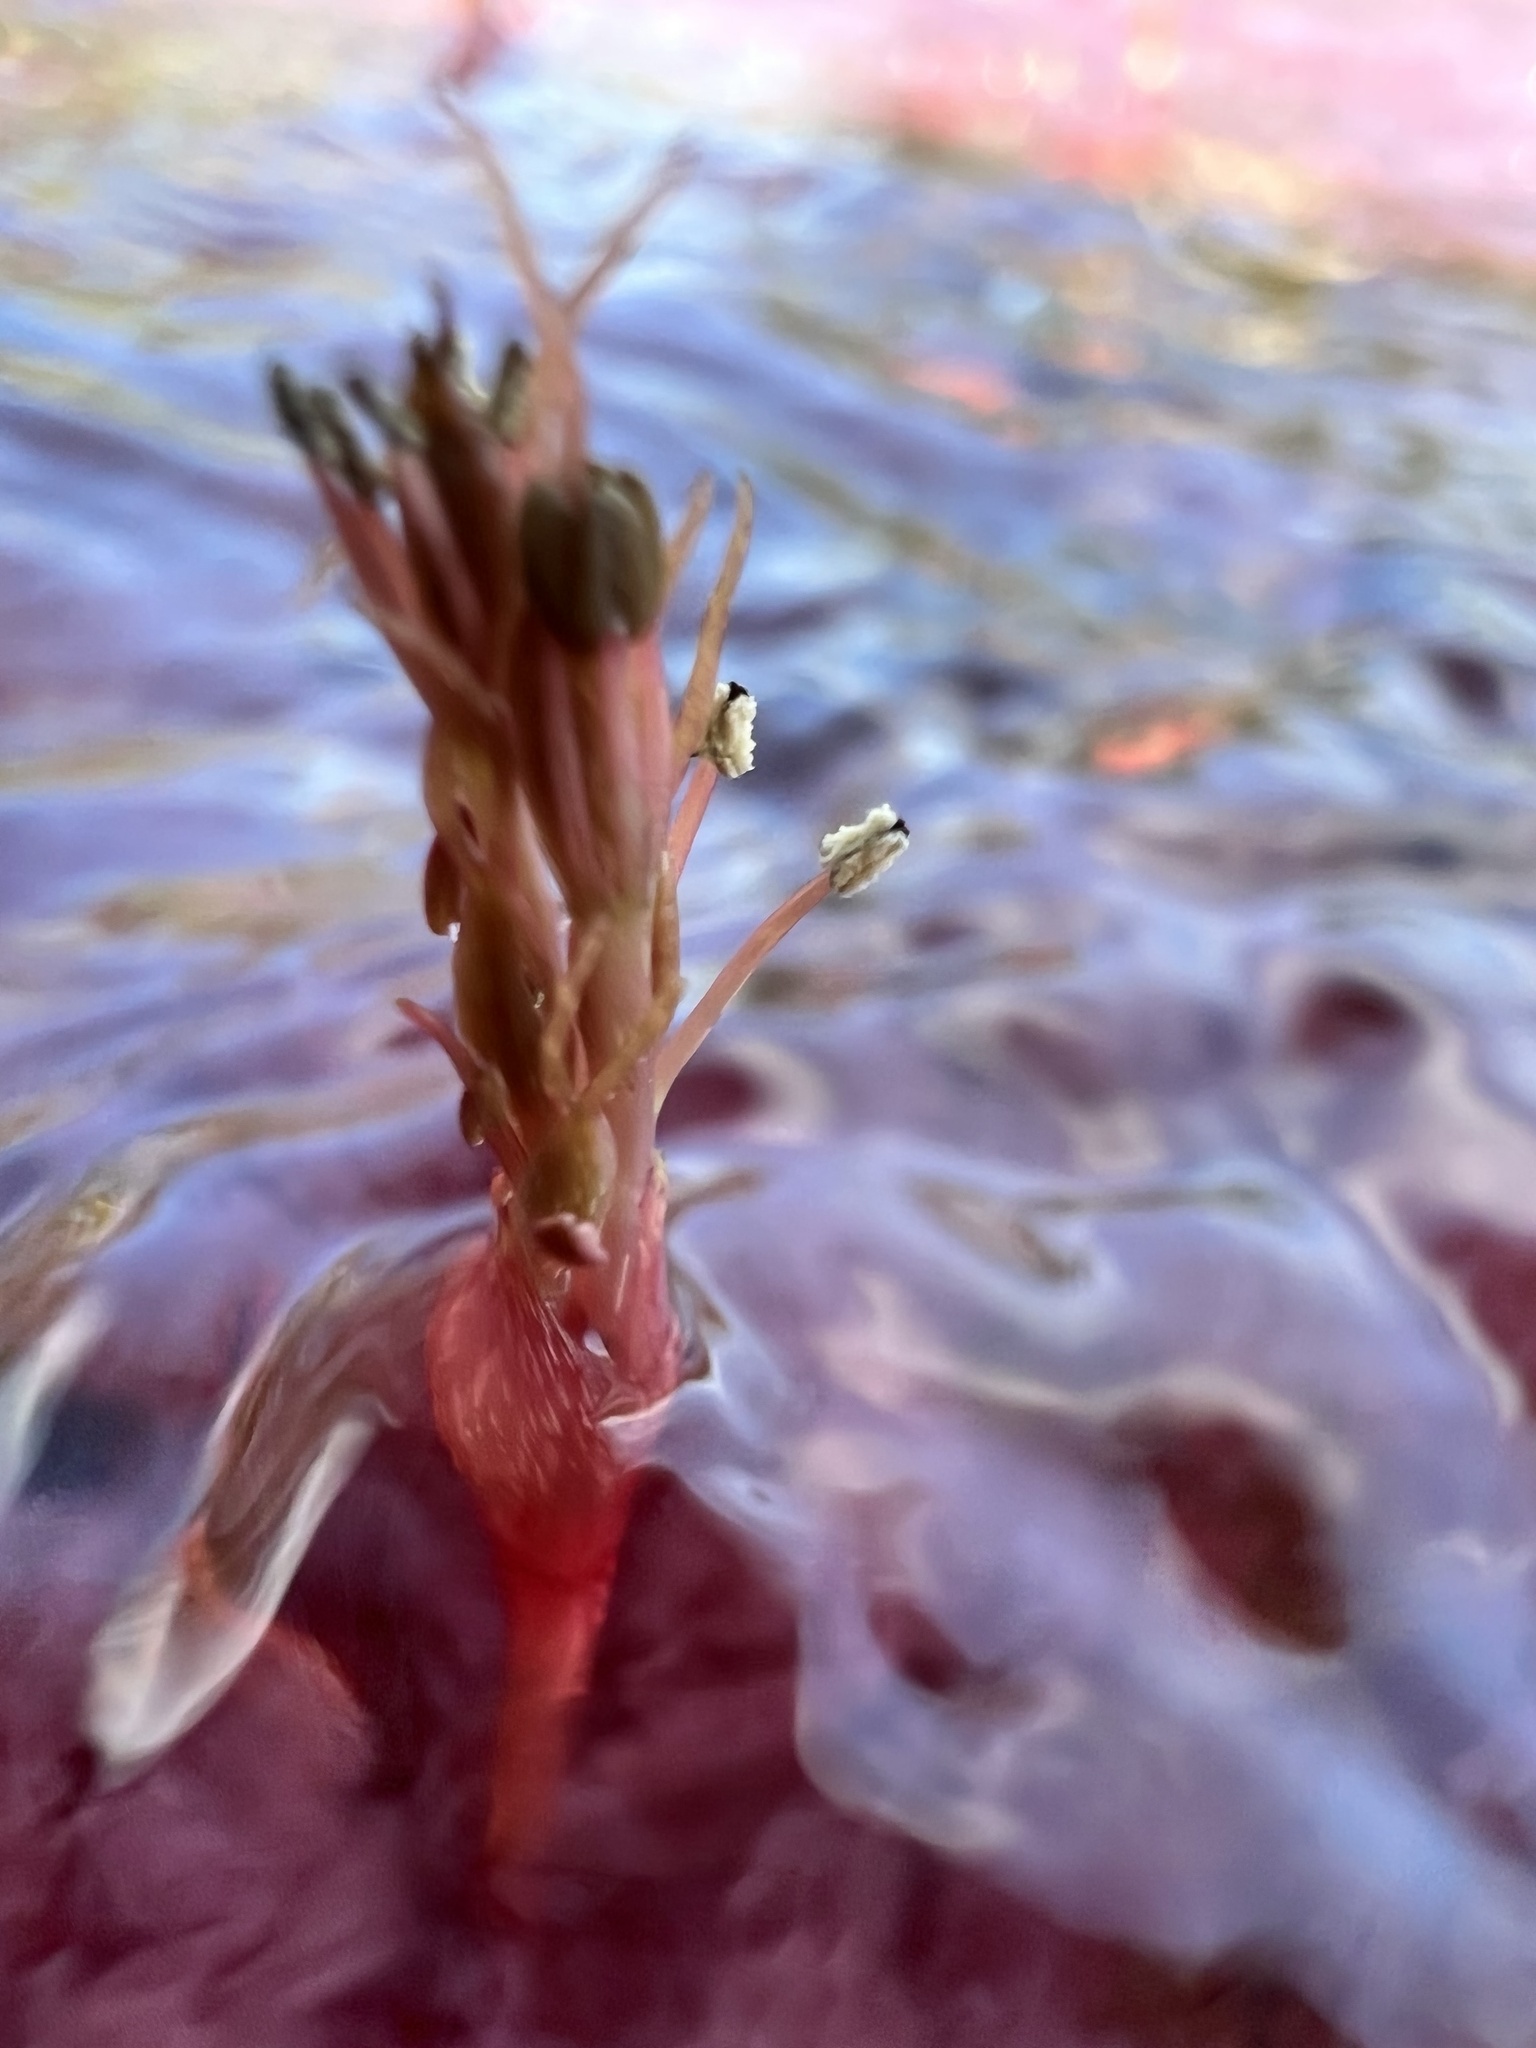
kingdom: Plantae
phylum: Tracheophyta
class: Magnoliopsida
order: Malpighiales
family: Podostemaceae
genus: Rhyncholacis
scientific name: Rhyncholacis clavigera
